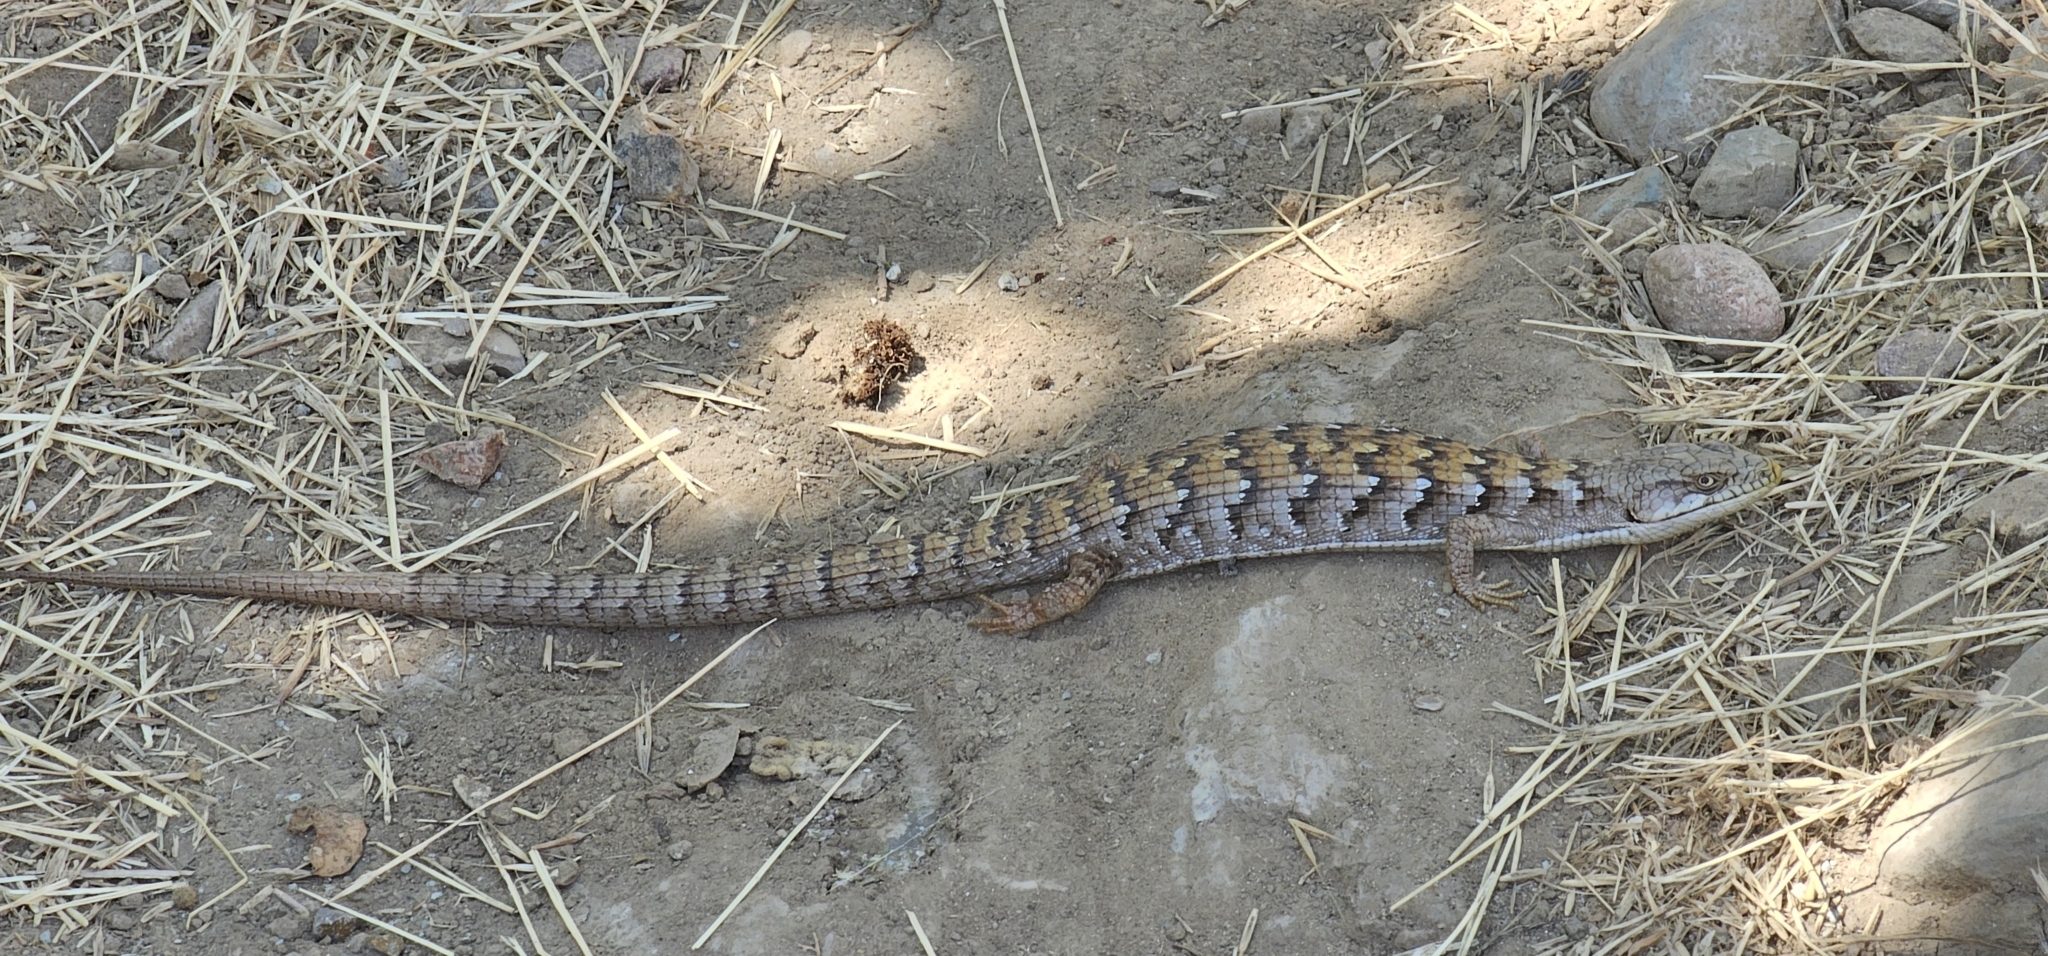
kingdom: Animalia
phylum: Chordata
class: Squamata
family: Anguidae
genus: Elgaria
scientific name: Elgaria multicarinata
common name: Southern alligator lizard
